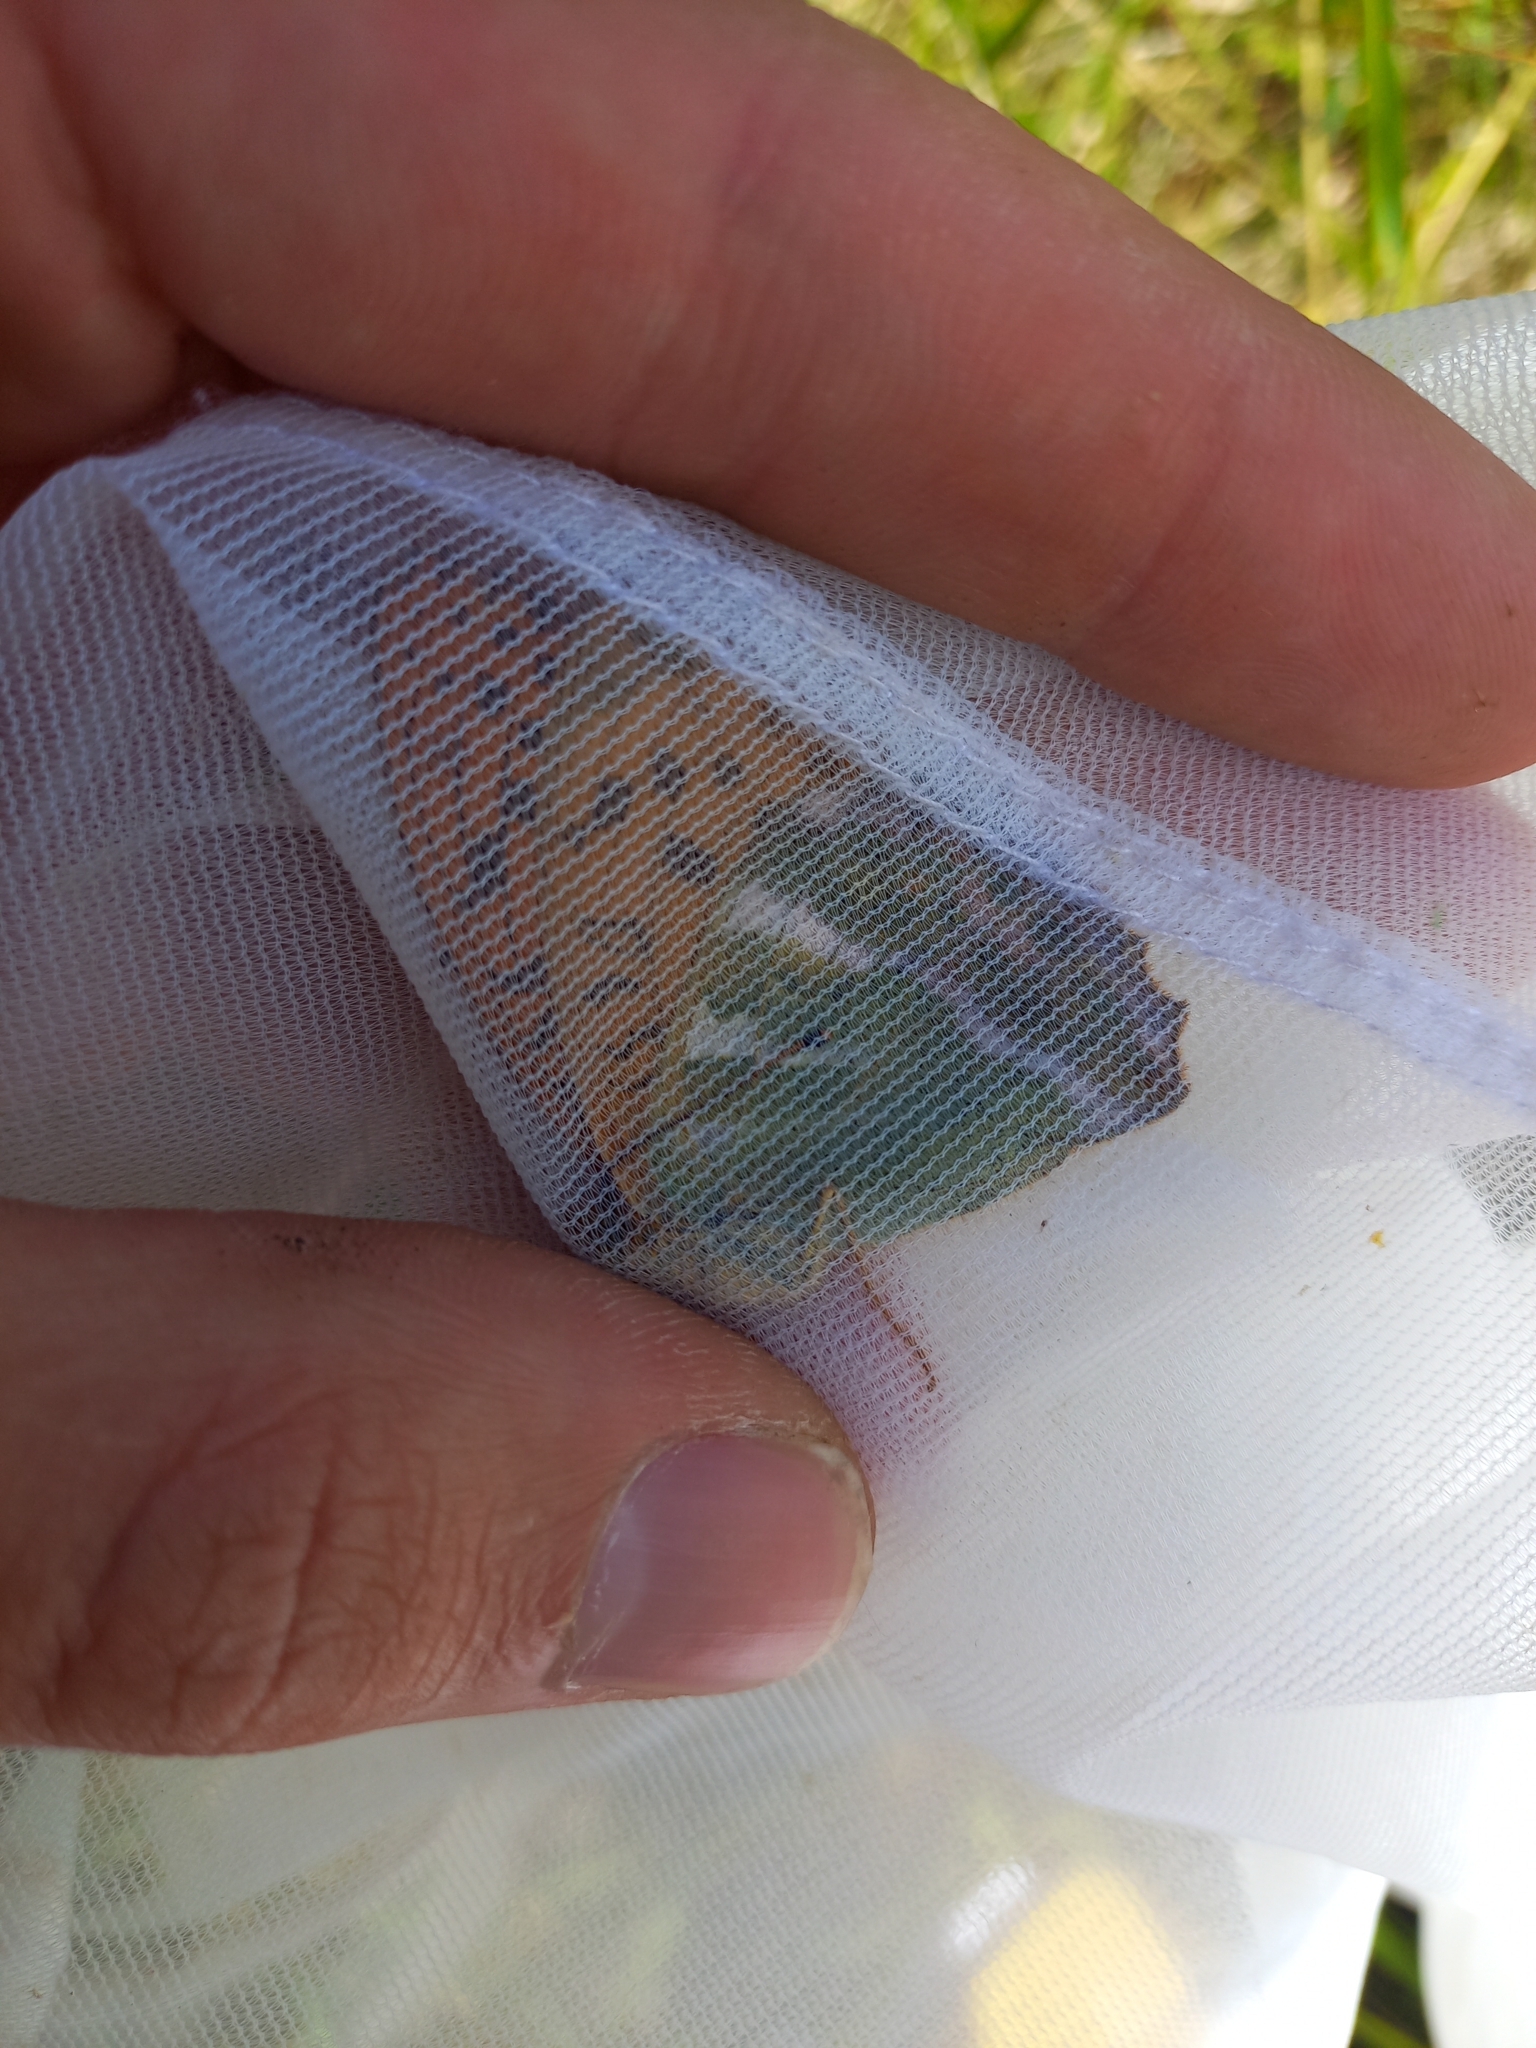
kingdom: Animalia
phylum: Arthropoda
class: Insecta
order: Lepidoptera
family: Nymphalidae
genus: Argynnis
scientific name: Argynnis paphia
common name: Silver-washed fritillary
